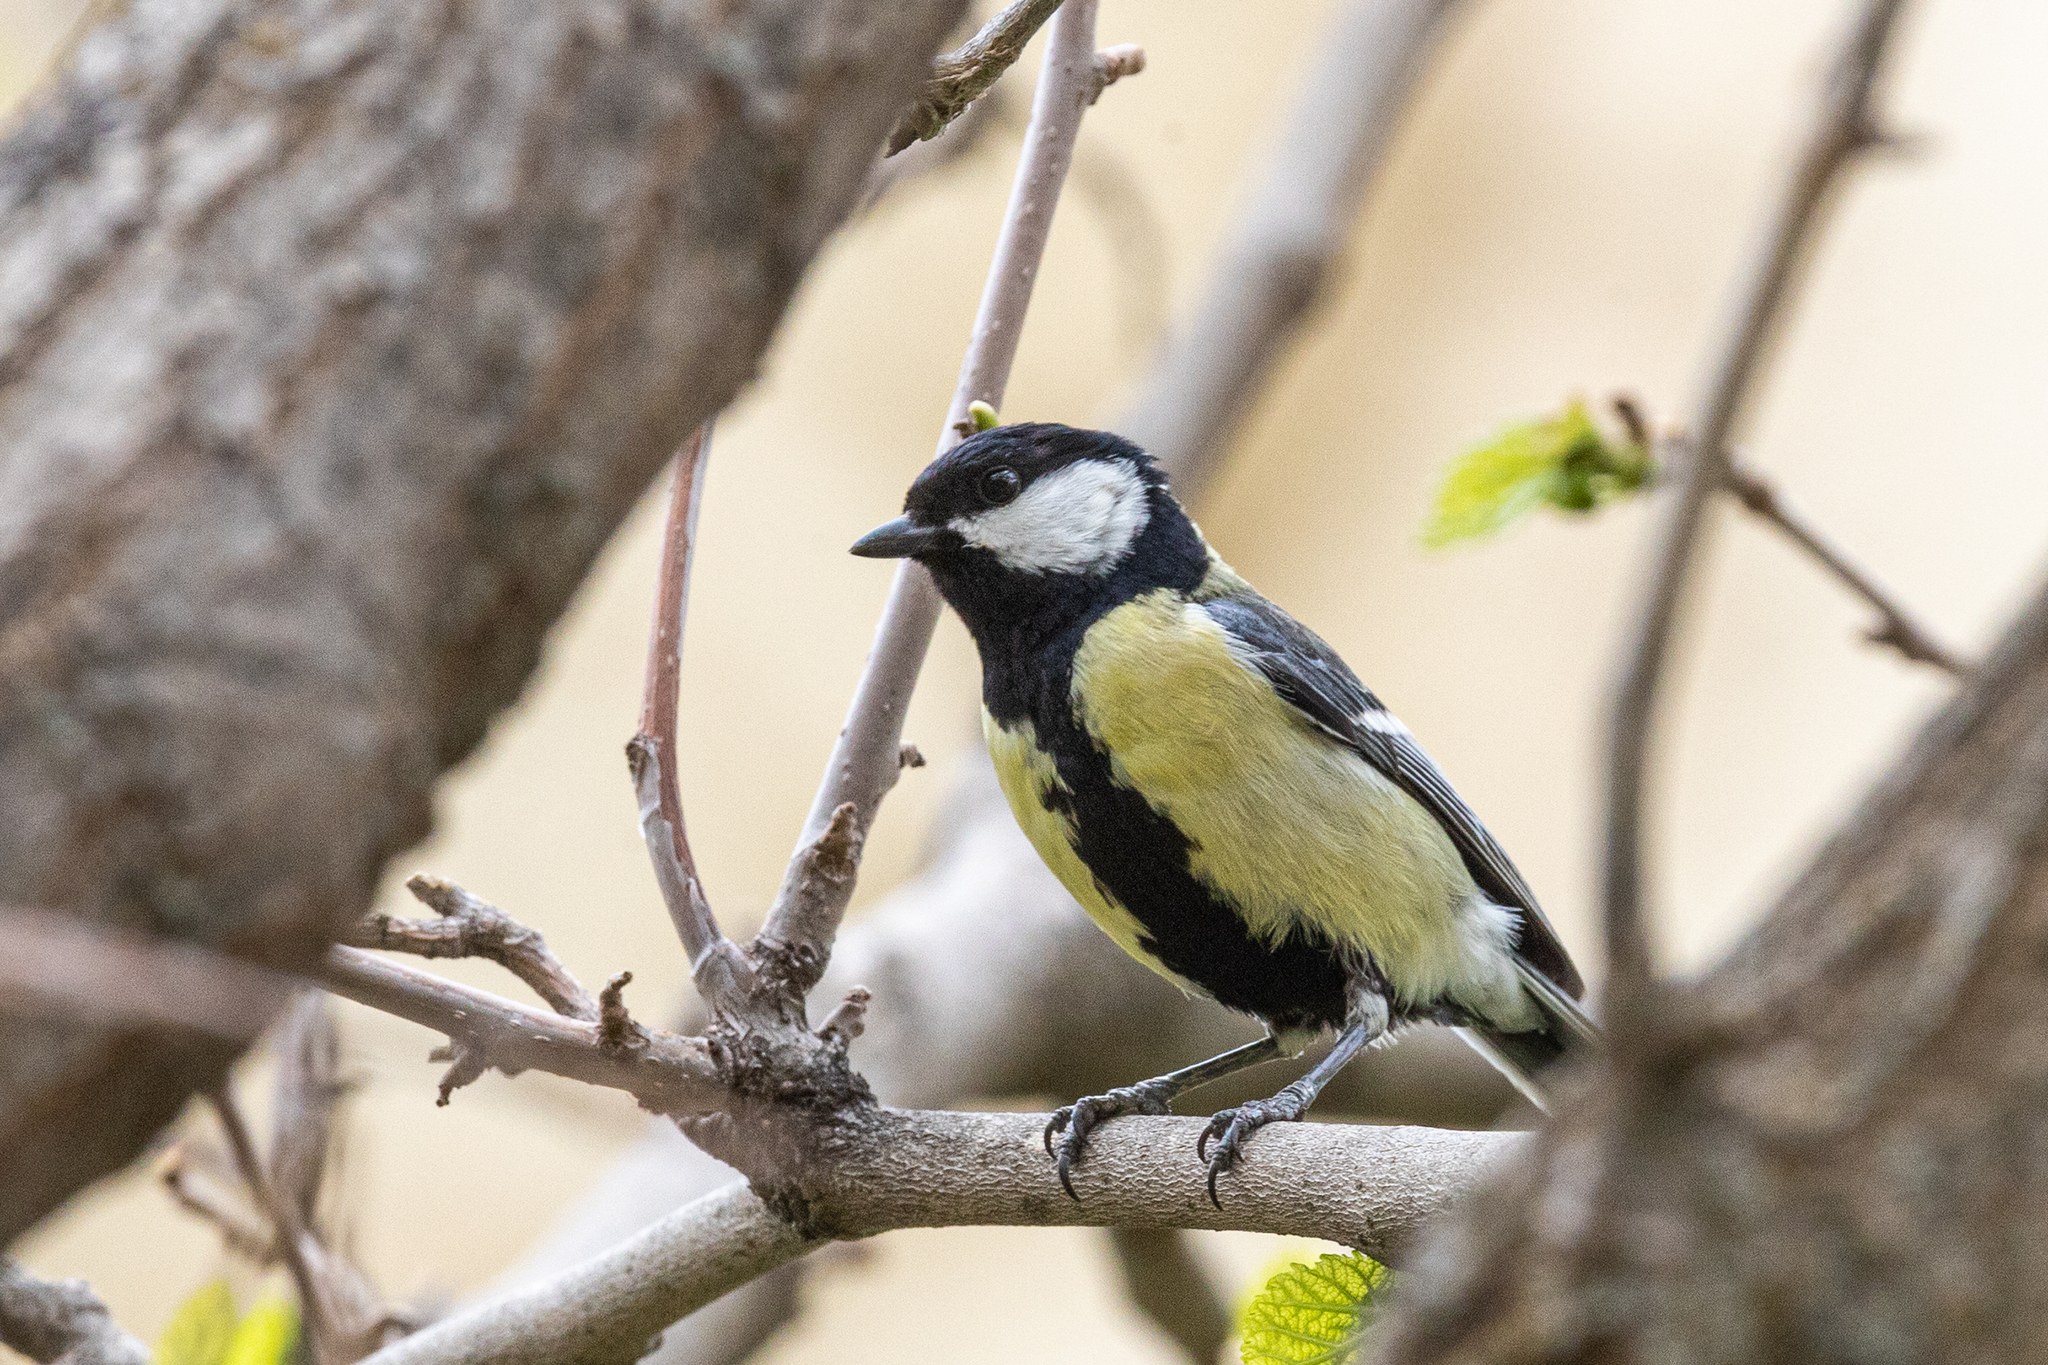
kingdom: Animalia
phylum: Chordata
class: Aves
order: Passeriformes
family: Paridae
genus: Parus
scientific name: Parus major
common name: Great tit
